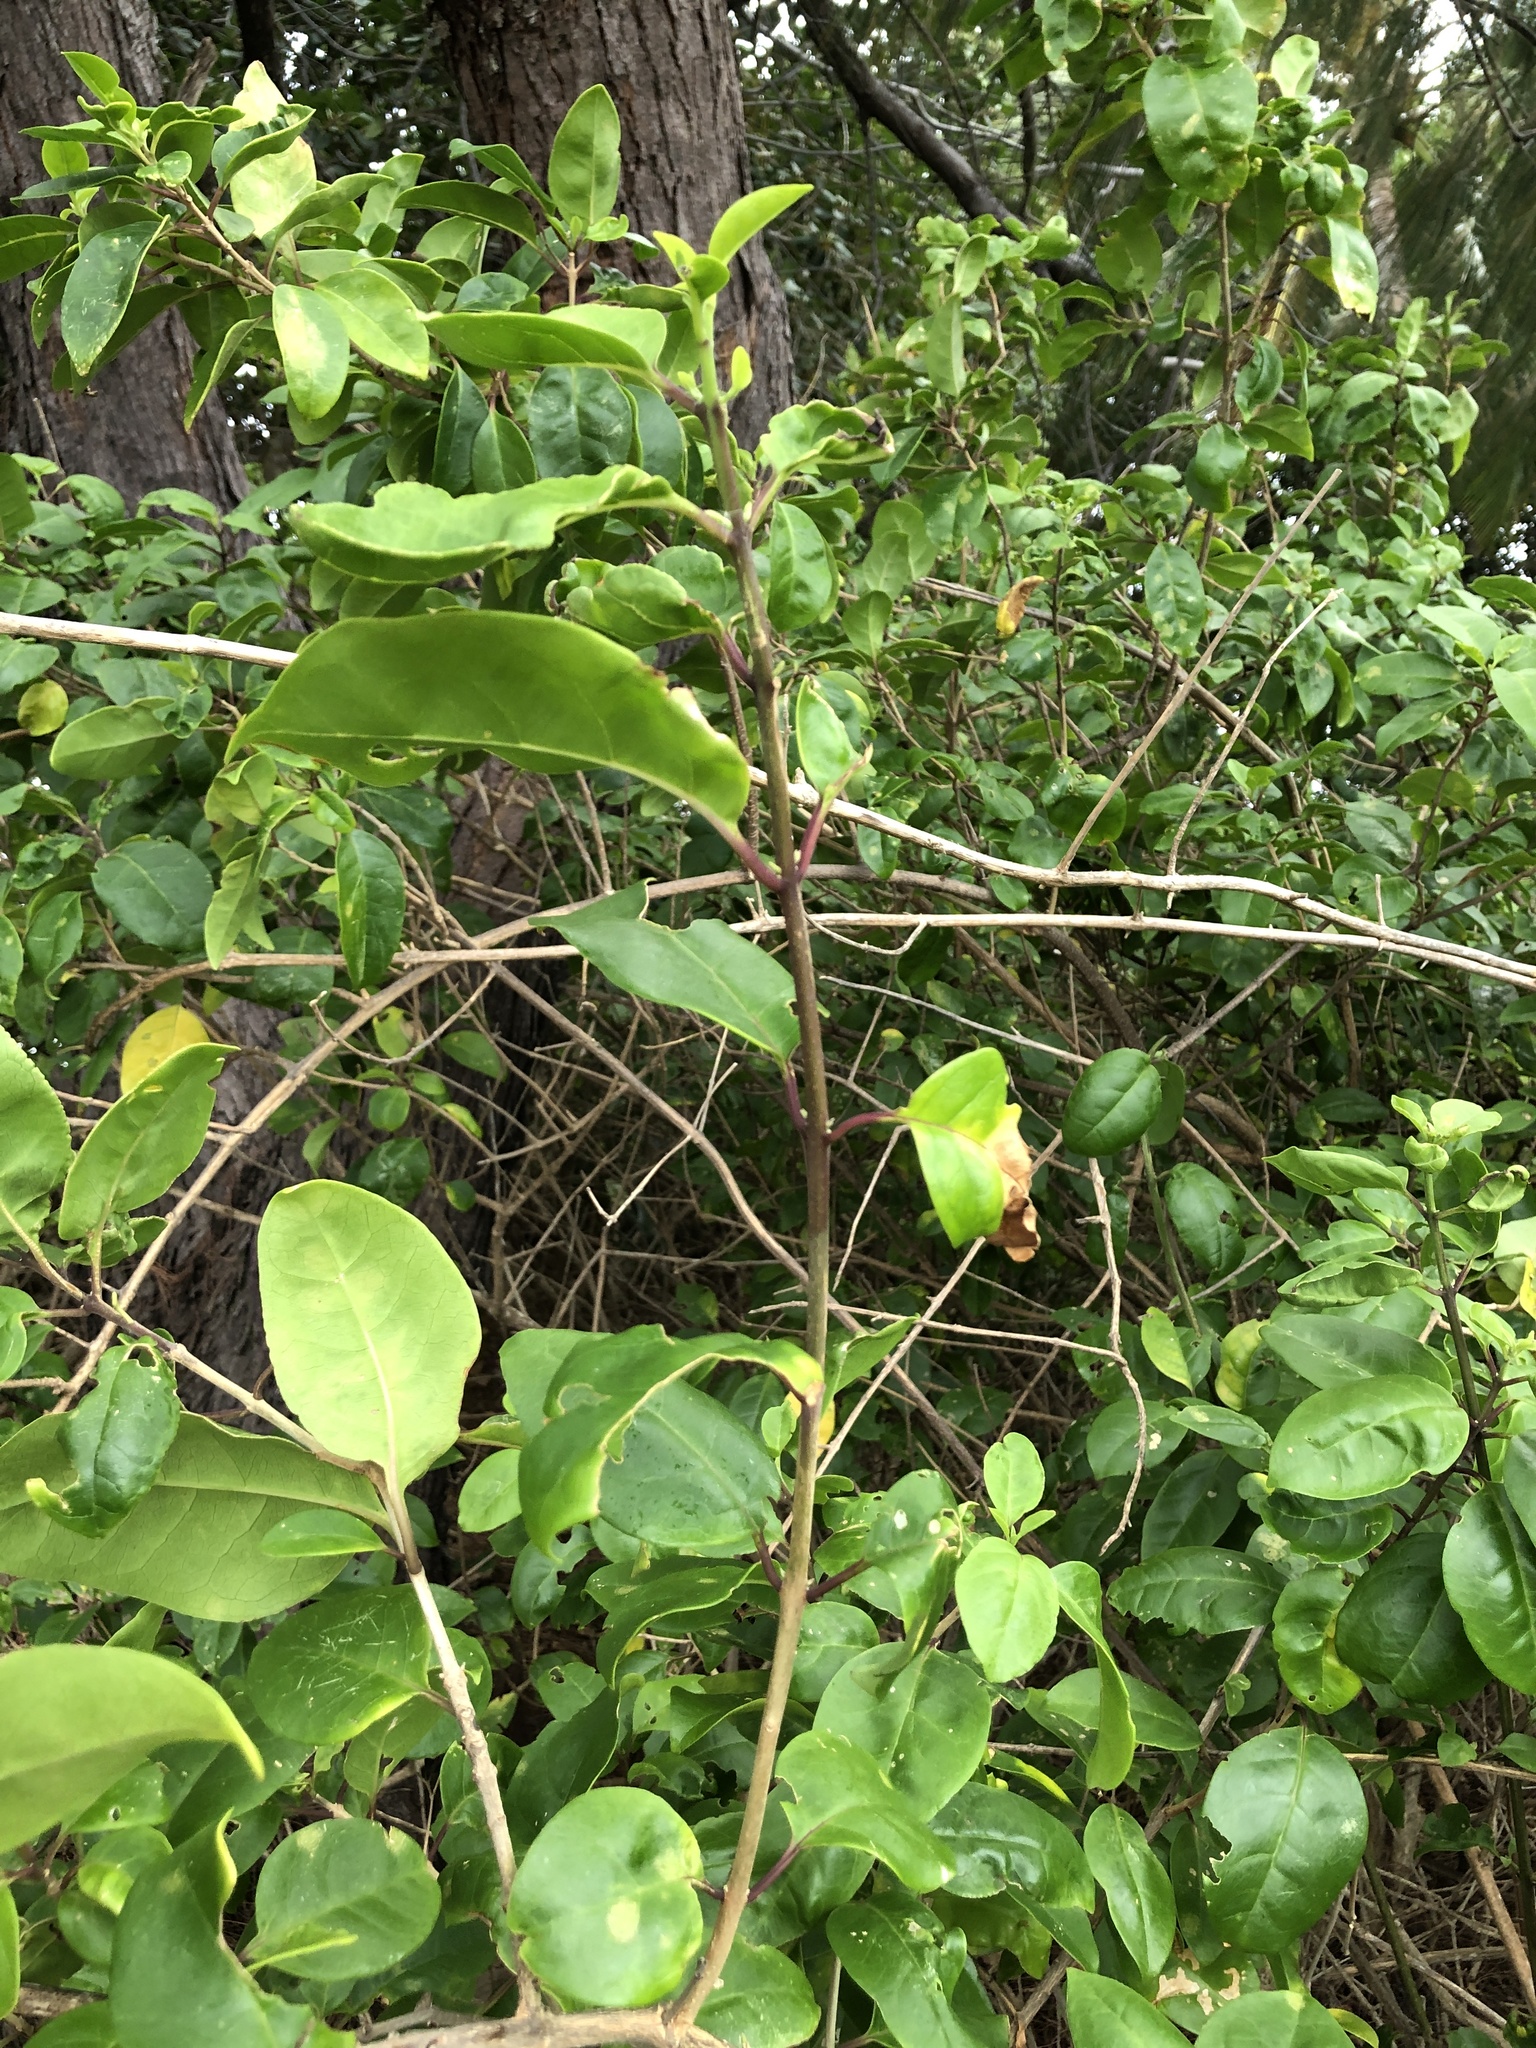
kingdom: Plantae
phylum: Tracheophyta
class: Magnoliopsida
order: Lamiales
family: Lamiaceae
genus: Volkameria
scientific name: Volkameria inermis
